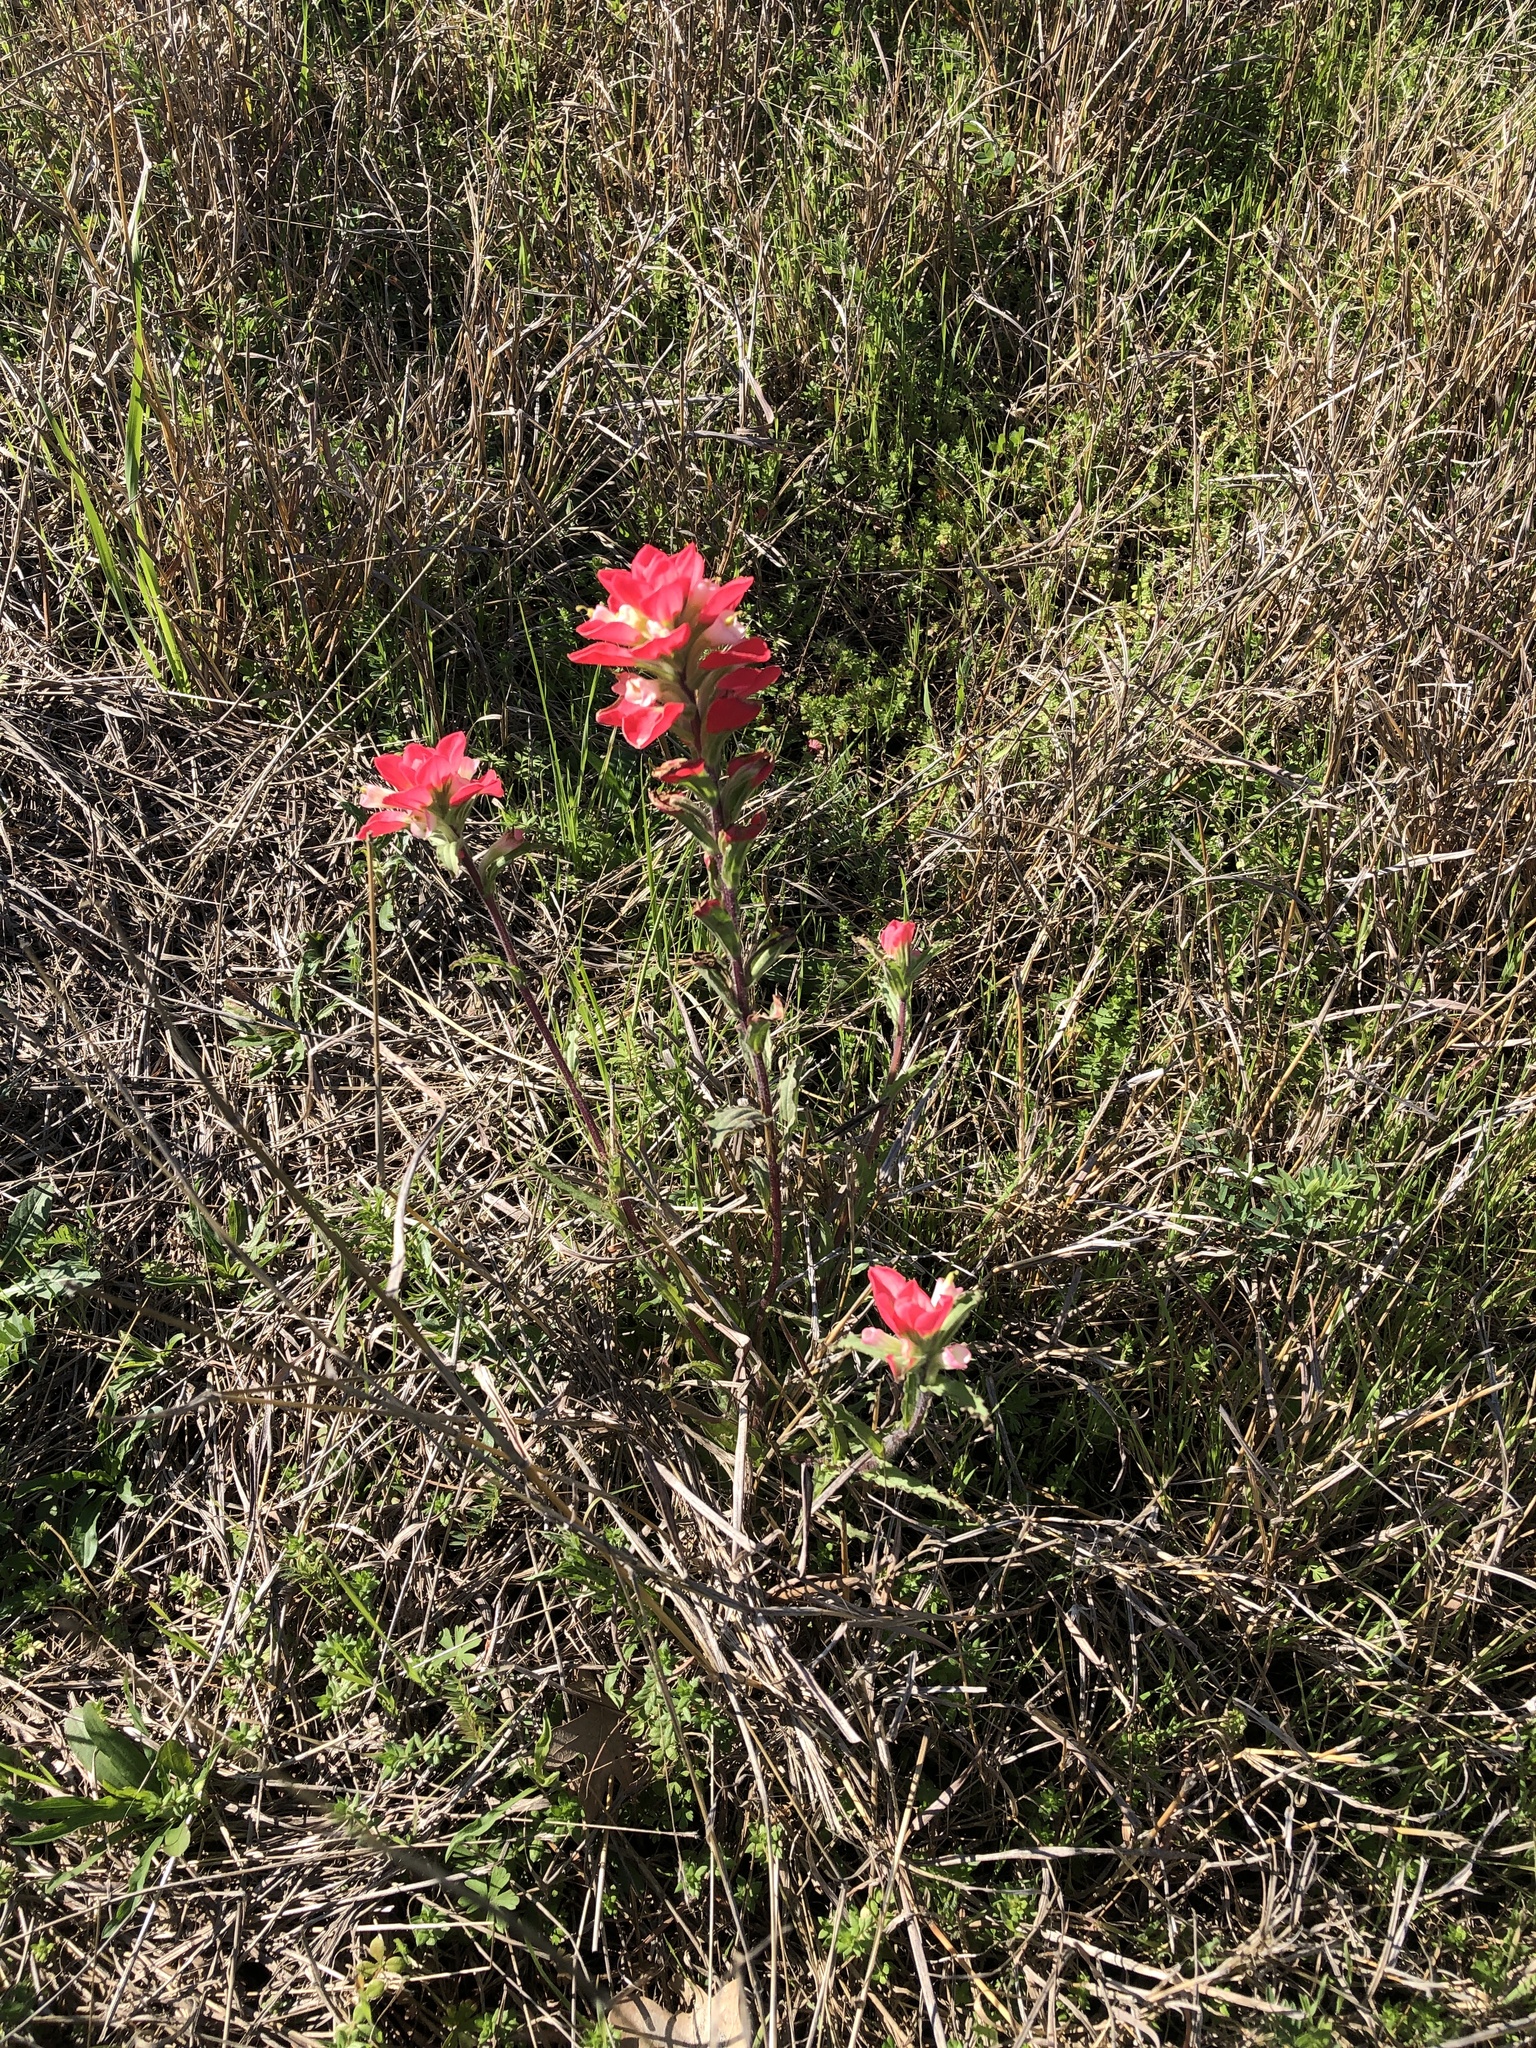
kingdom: Plantae
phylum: Tracheophyta
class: Magnoliopsida
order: Lamiales
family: Orobanchaceae
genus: Castilleja
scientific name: Castilleja indivisa
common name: Texas paintbrush
